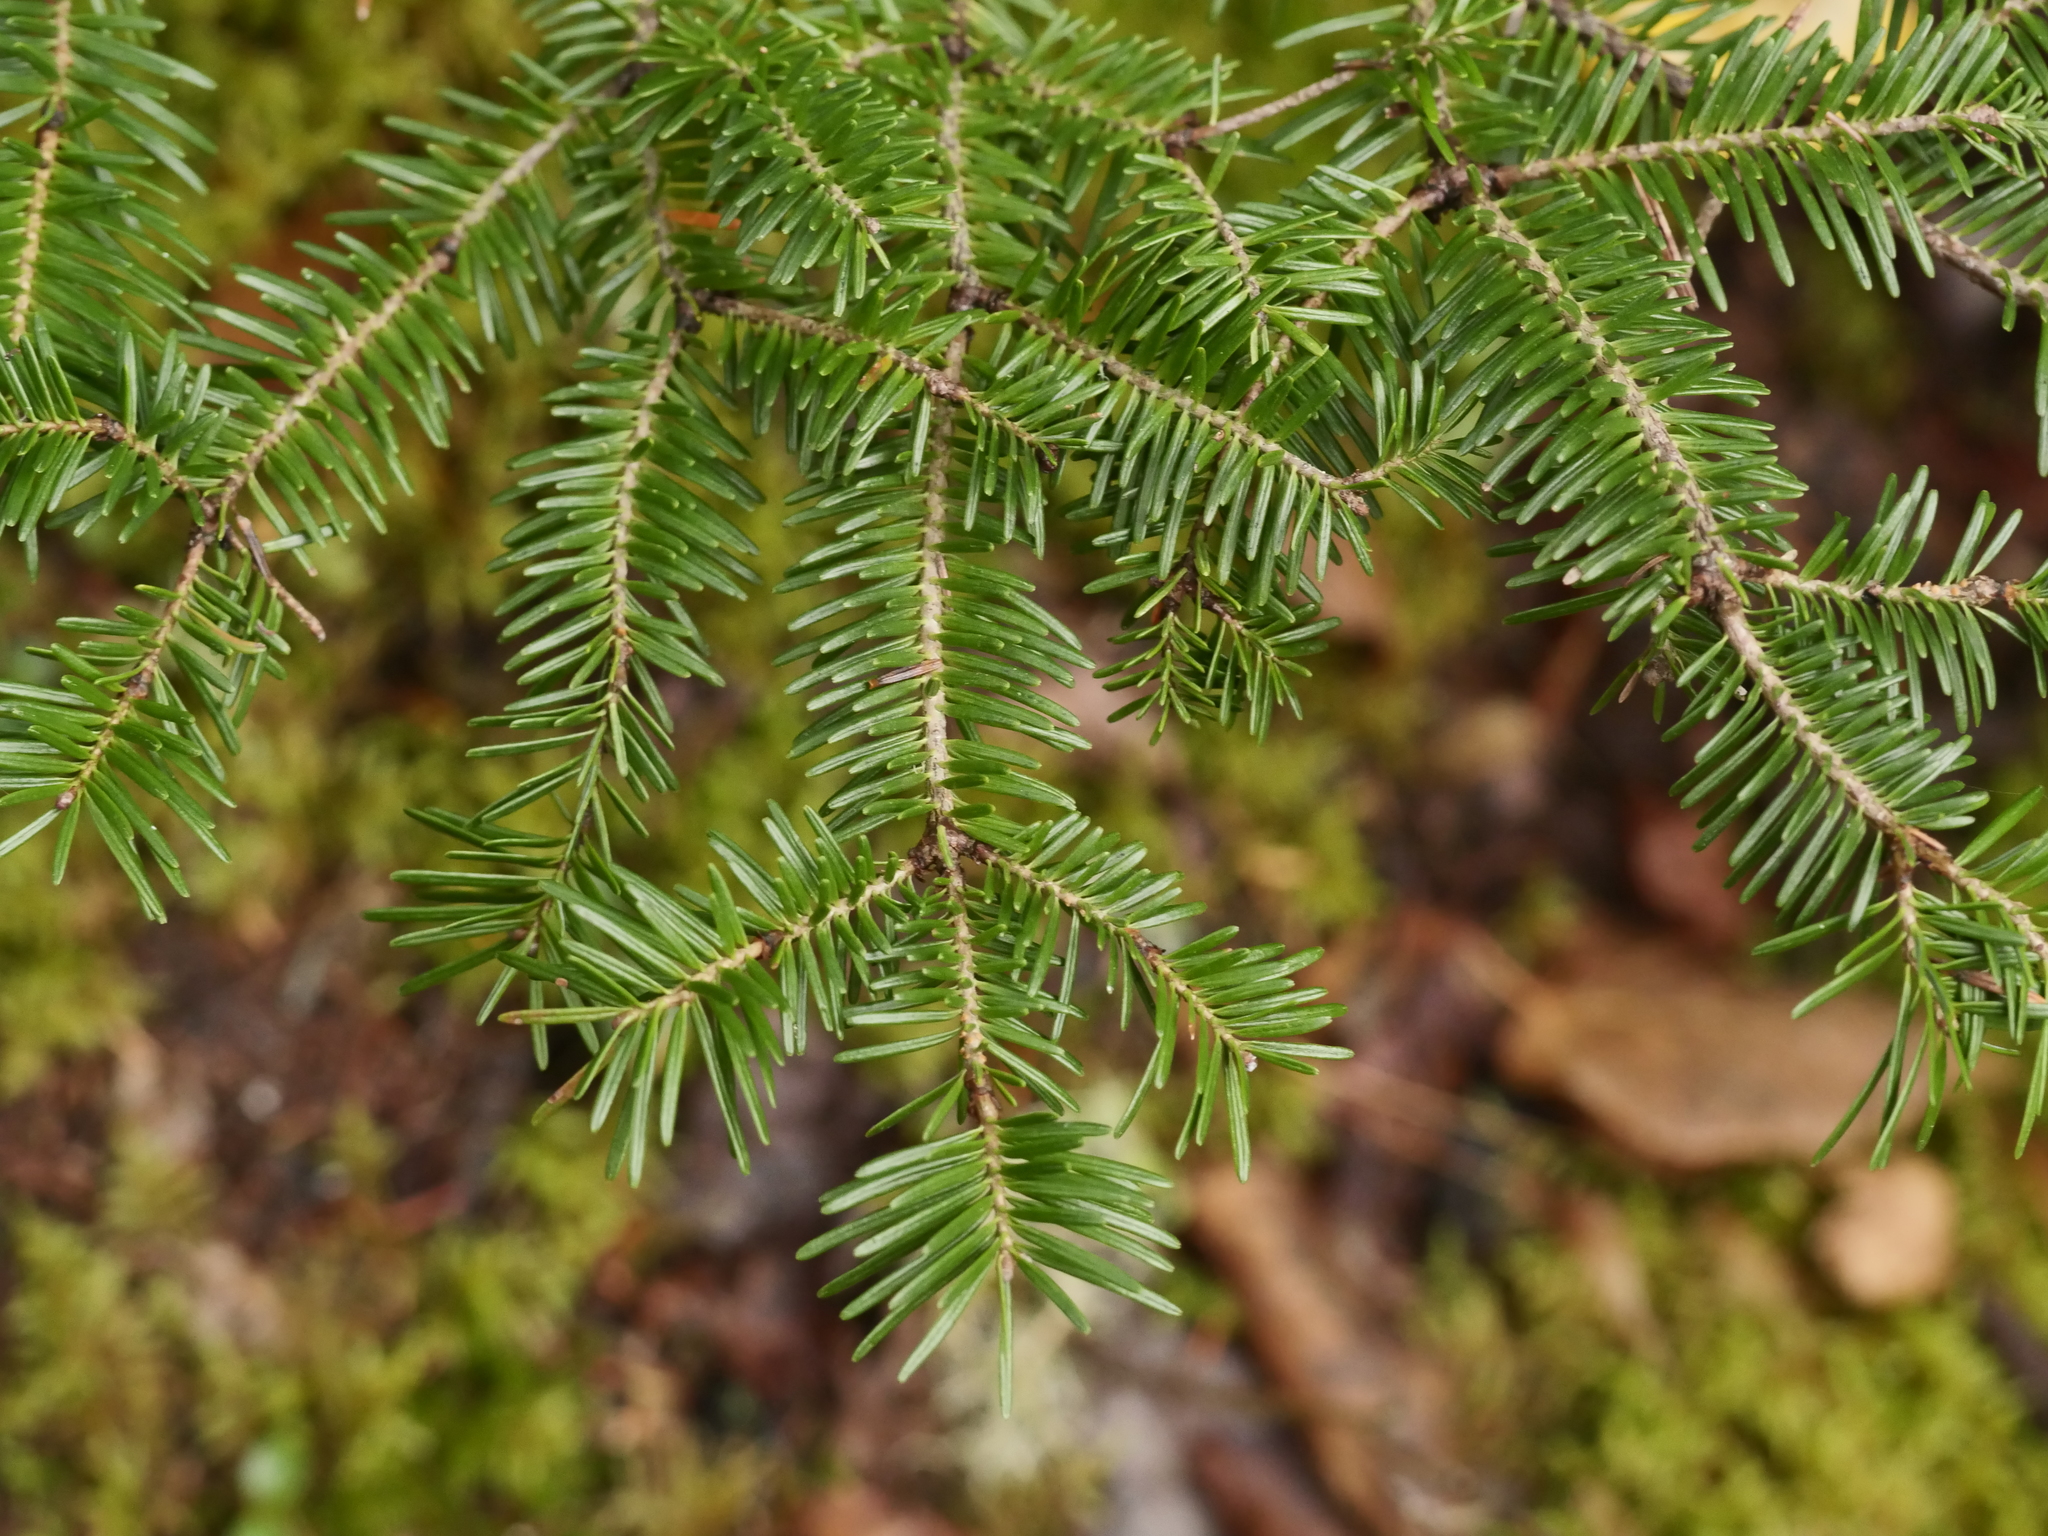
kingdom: Plantae
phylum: Tracheophyta
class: Pinopsida
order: Pinales
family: Pinaceae
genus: Abies
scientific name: Abies balsamea
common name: Balsam fir
